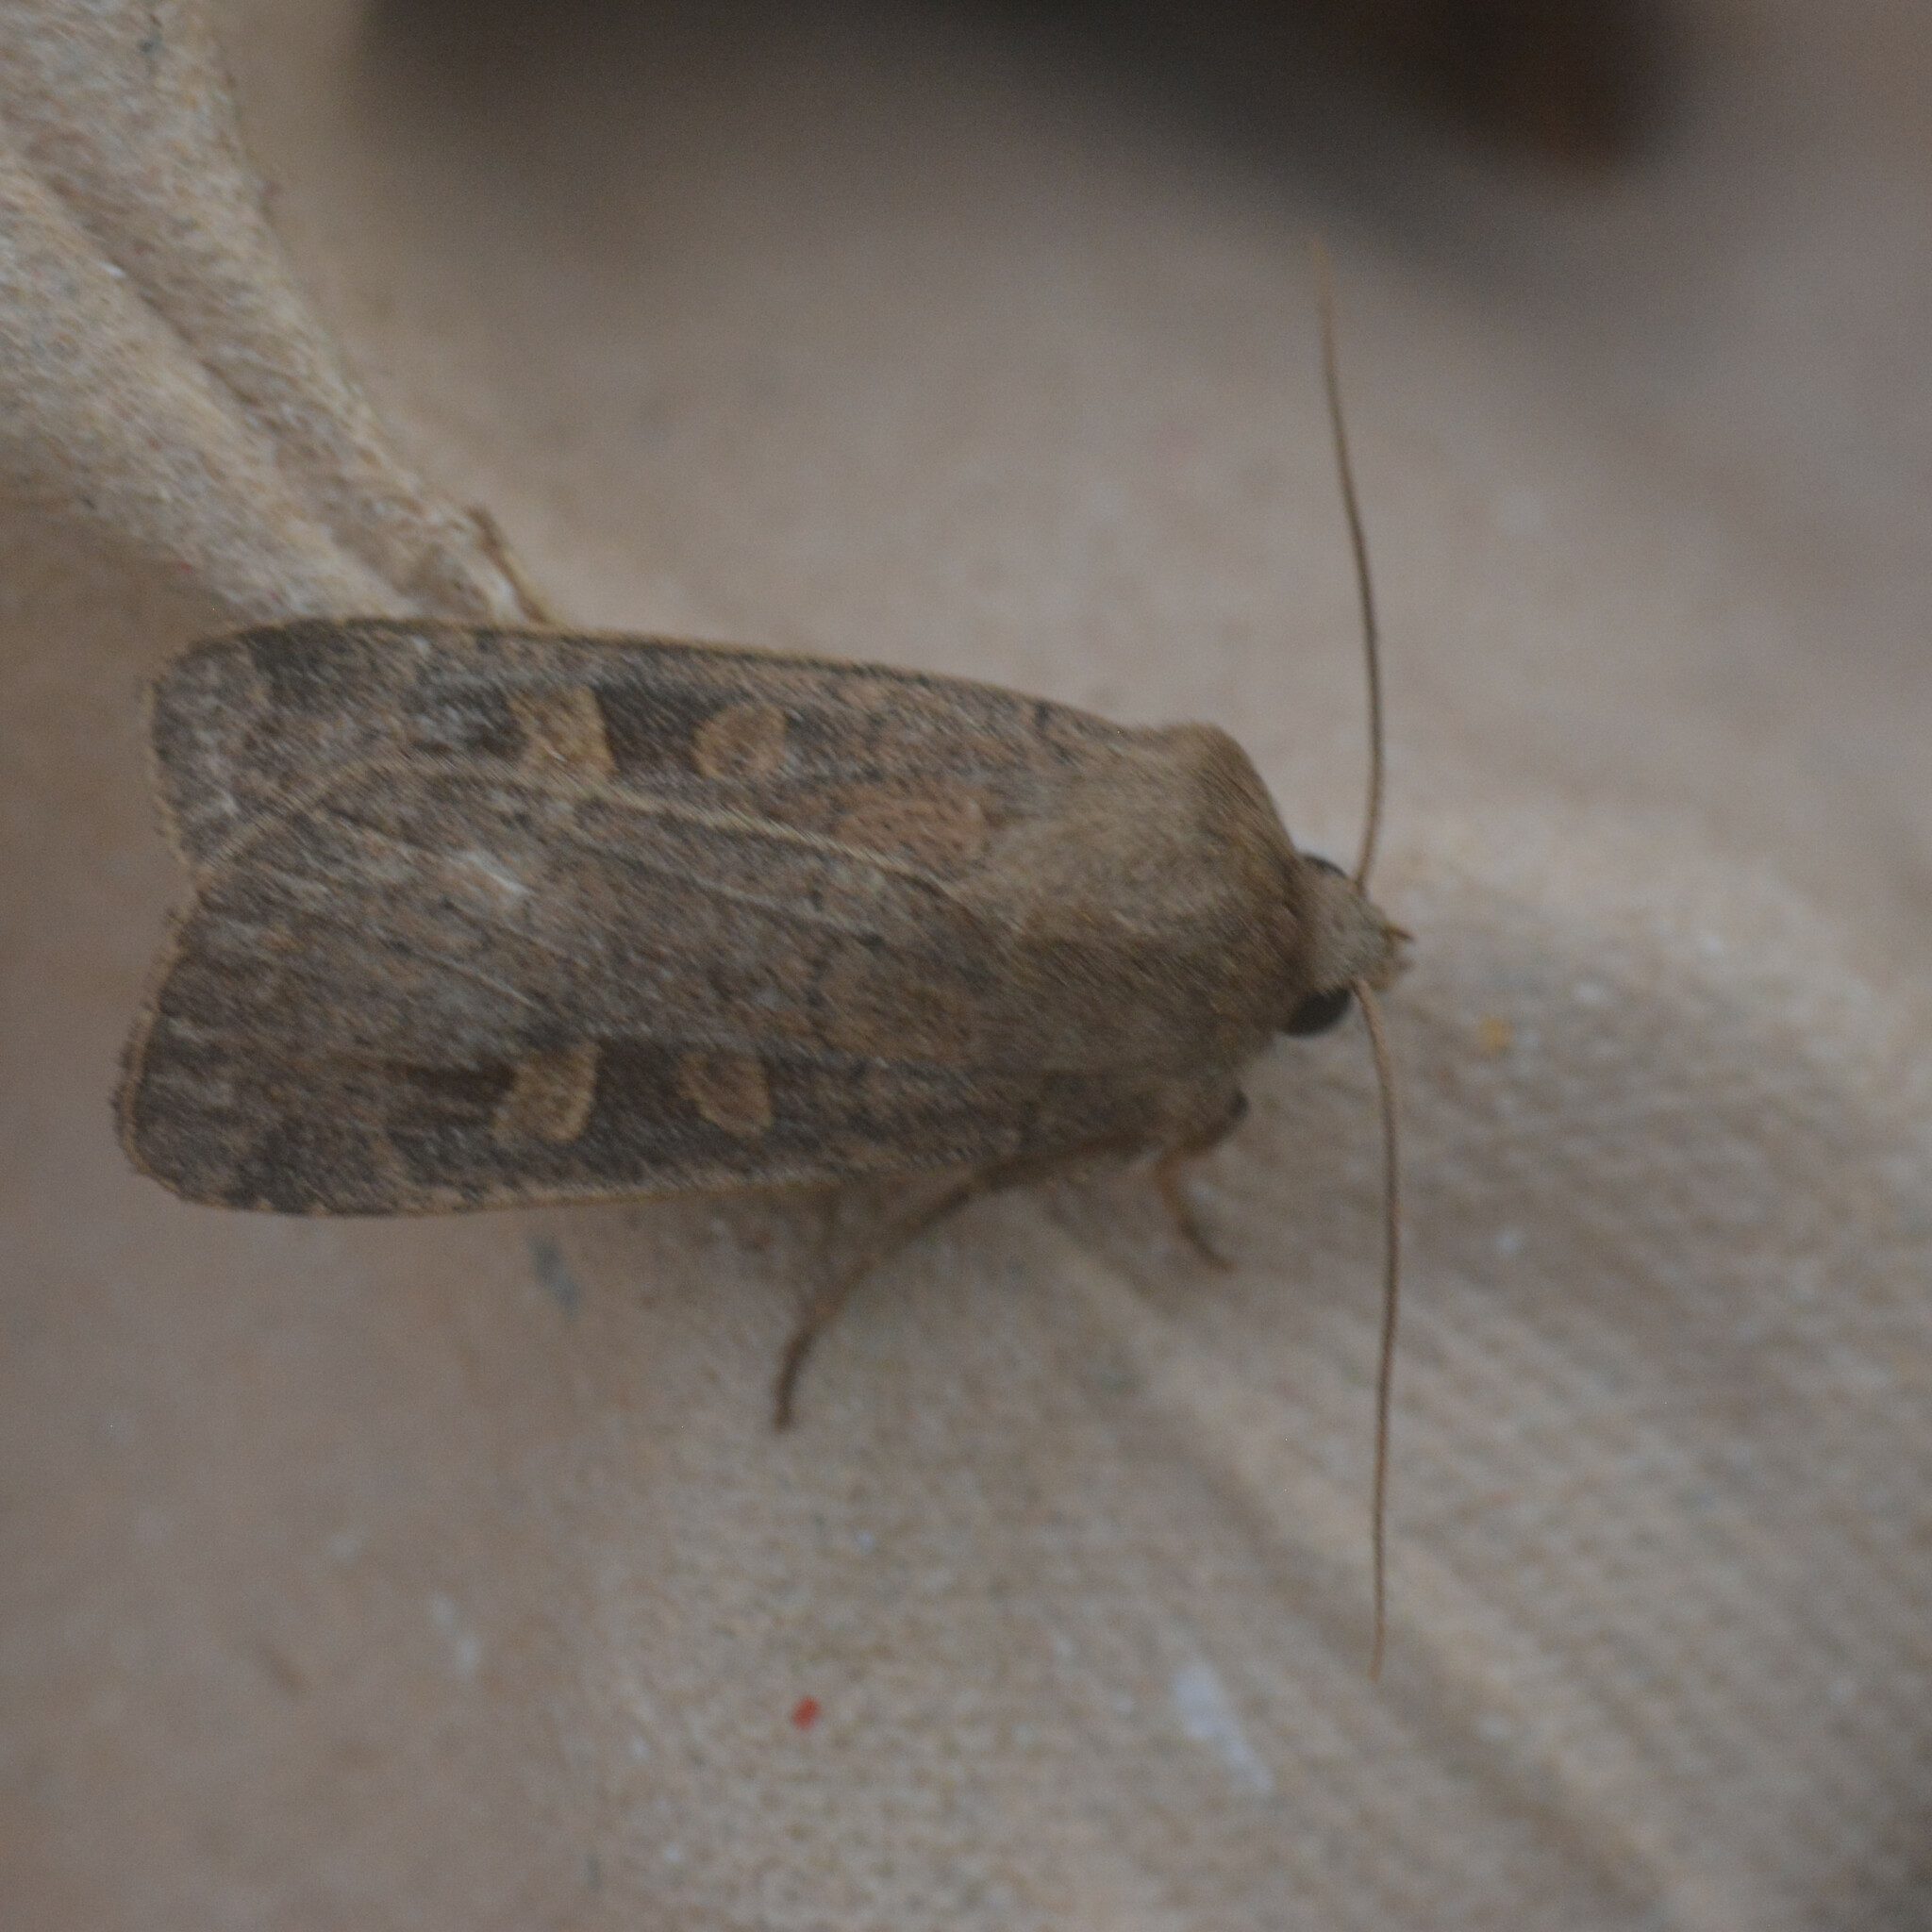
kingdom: Animalia
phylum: Arthropoda
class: Insecta
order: Lepidoptera
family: Noctuidae
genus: Xestia
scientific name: Xestia xanthographa
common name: Square-spot rustic
